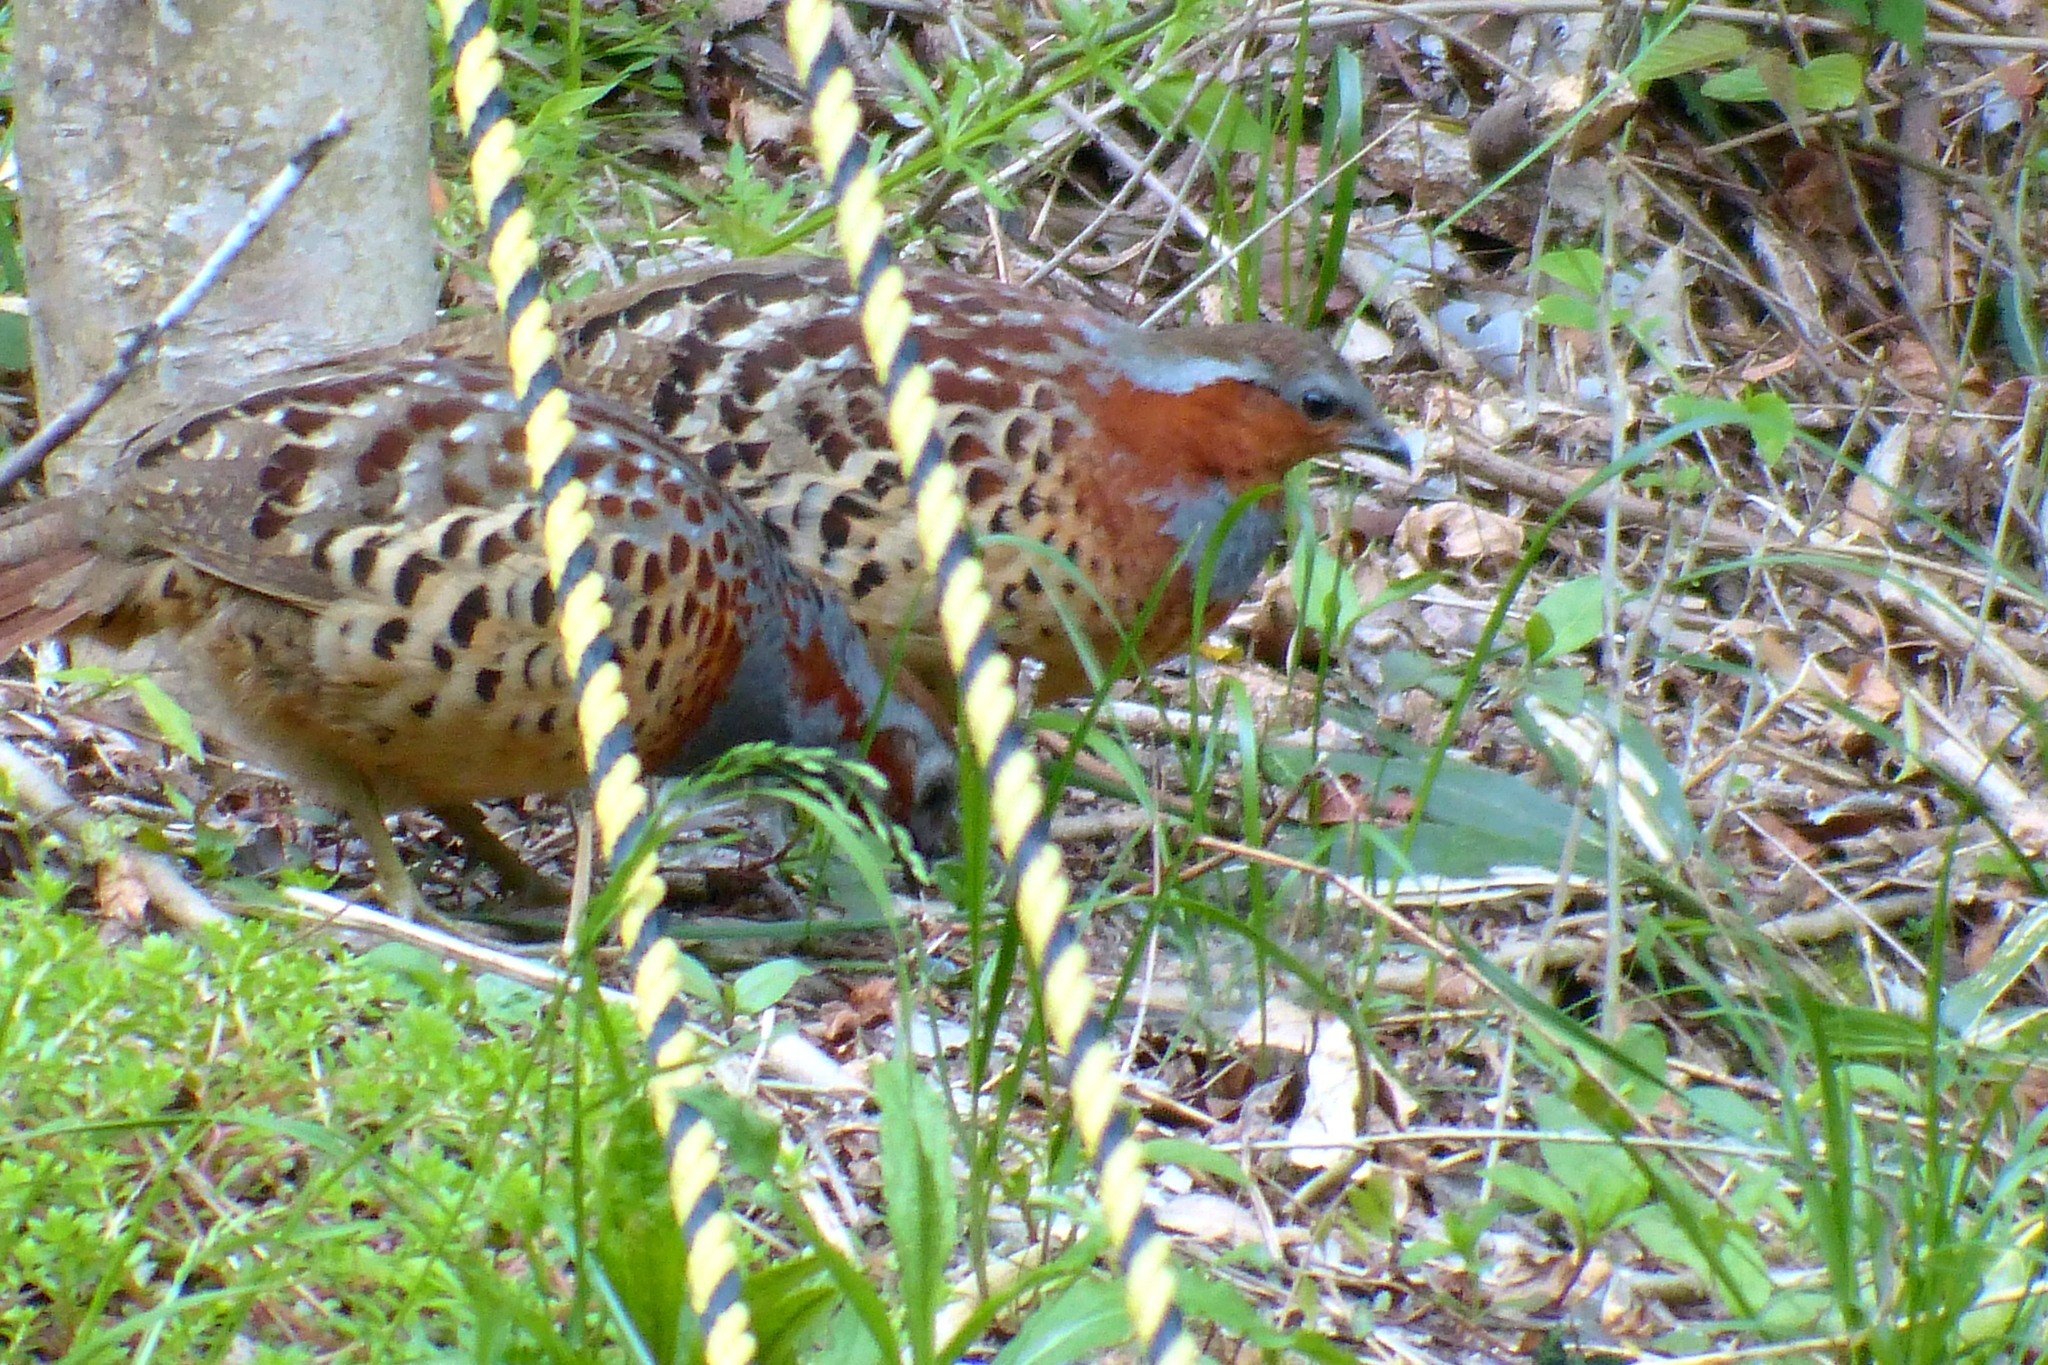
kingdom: Animalia
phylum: Chordata
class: Aves
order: Galliformes
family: Phasianidae
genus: Bambusicola
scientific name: Bambusicola thoracicus
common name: Chinese bamboo partridge
